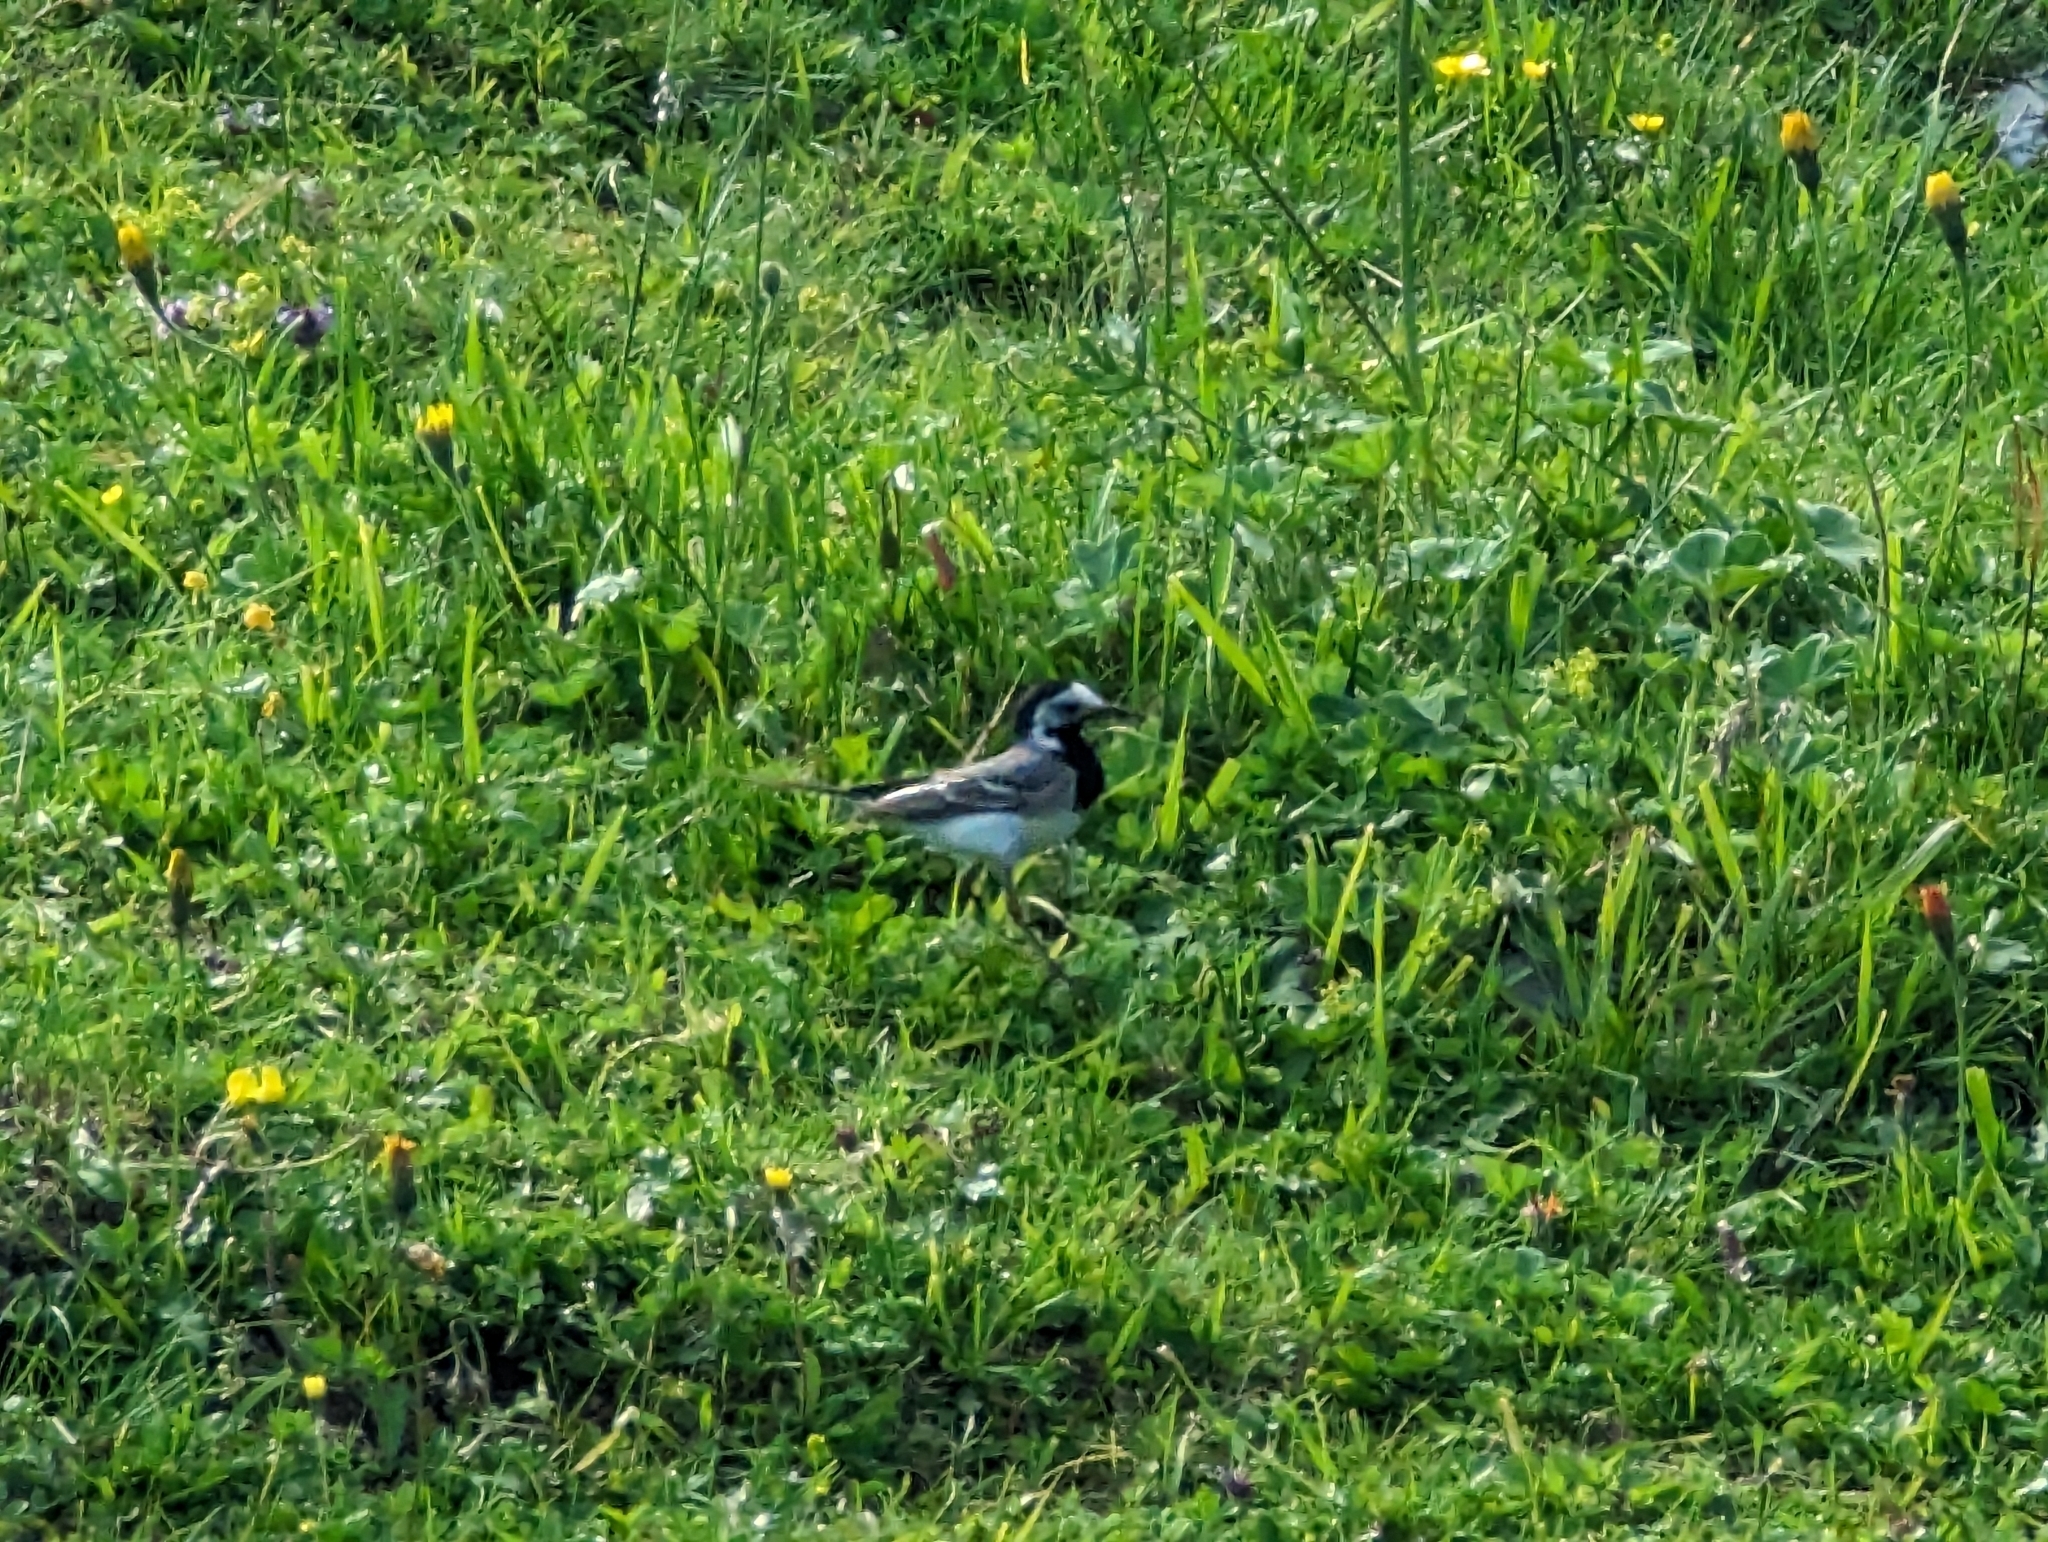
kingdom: Animalia
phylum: Chordata
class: Aves
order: Passeriformes
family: Motacillidae
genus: Motacilla
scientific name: Motacilla alba
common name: White wagtail
